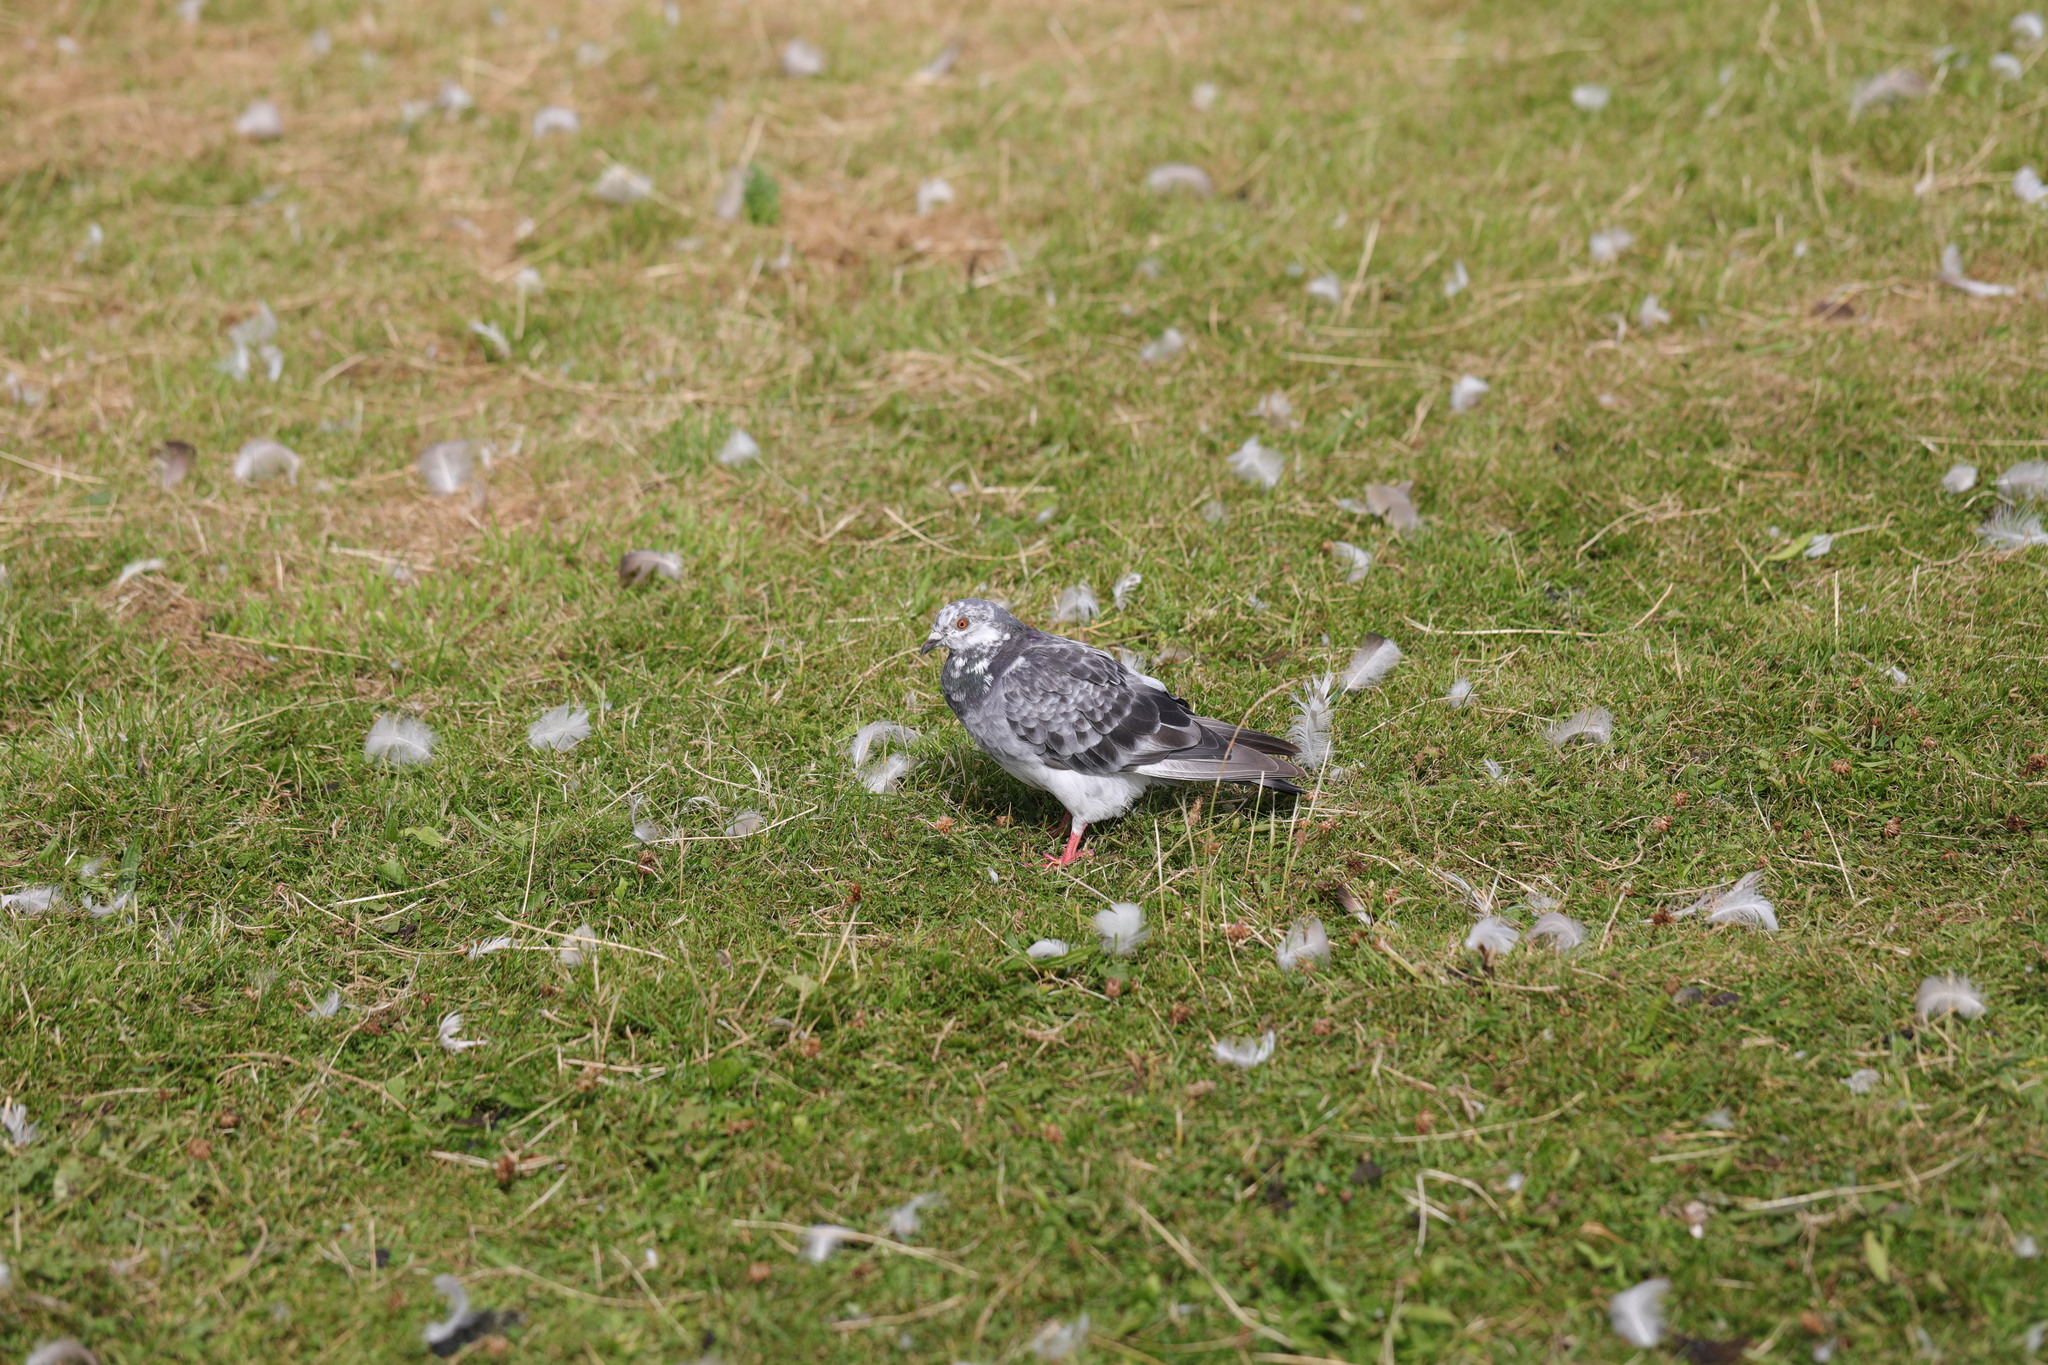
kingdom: Animalia
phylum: Chordata
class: Aves
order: Columbiformes
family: Columbidae
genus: Columba
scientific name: Columba livia
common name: Rock pigeon
